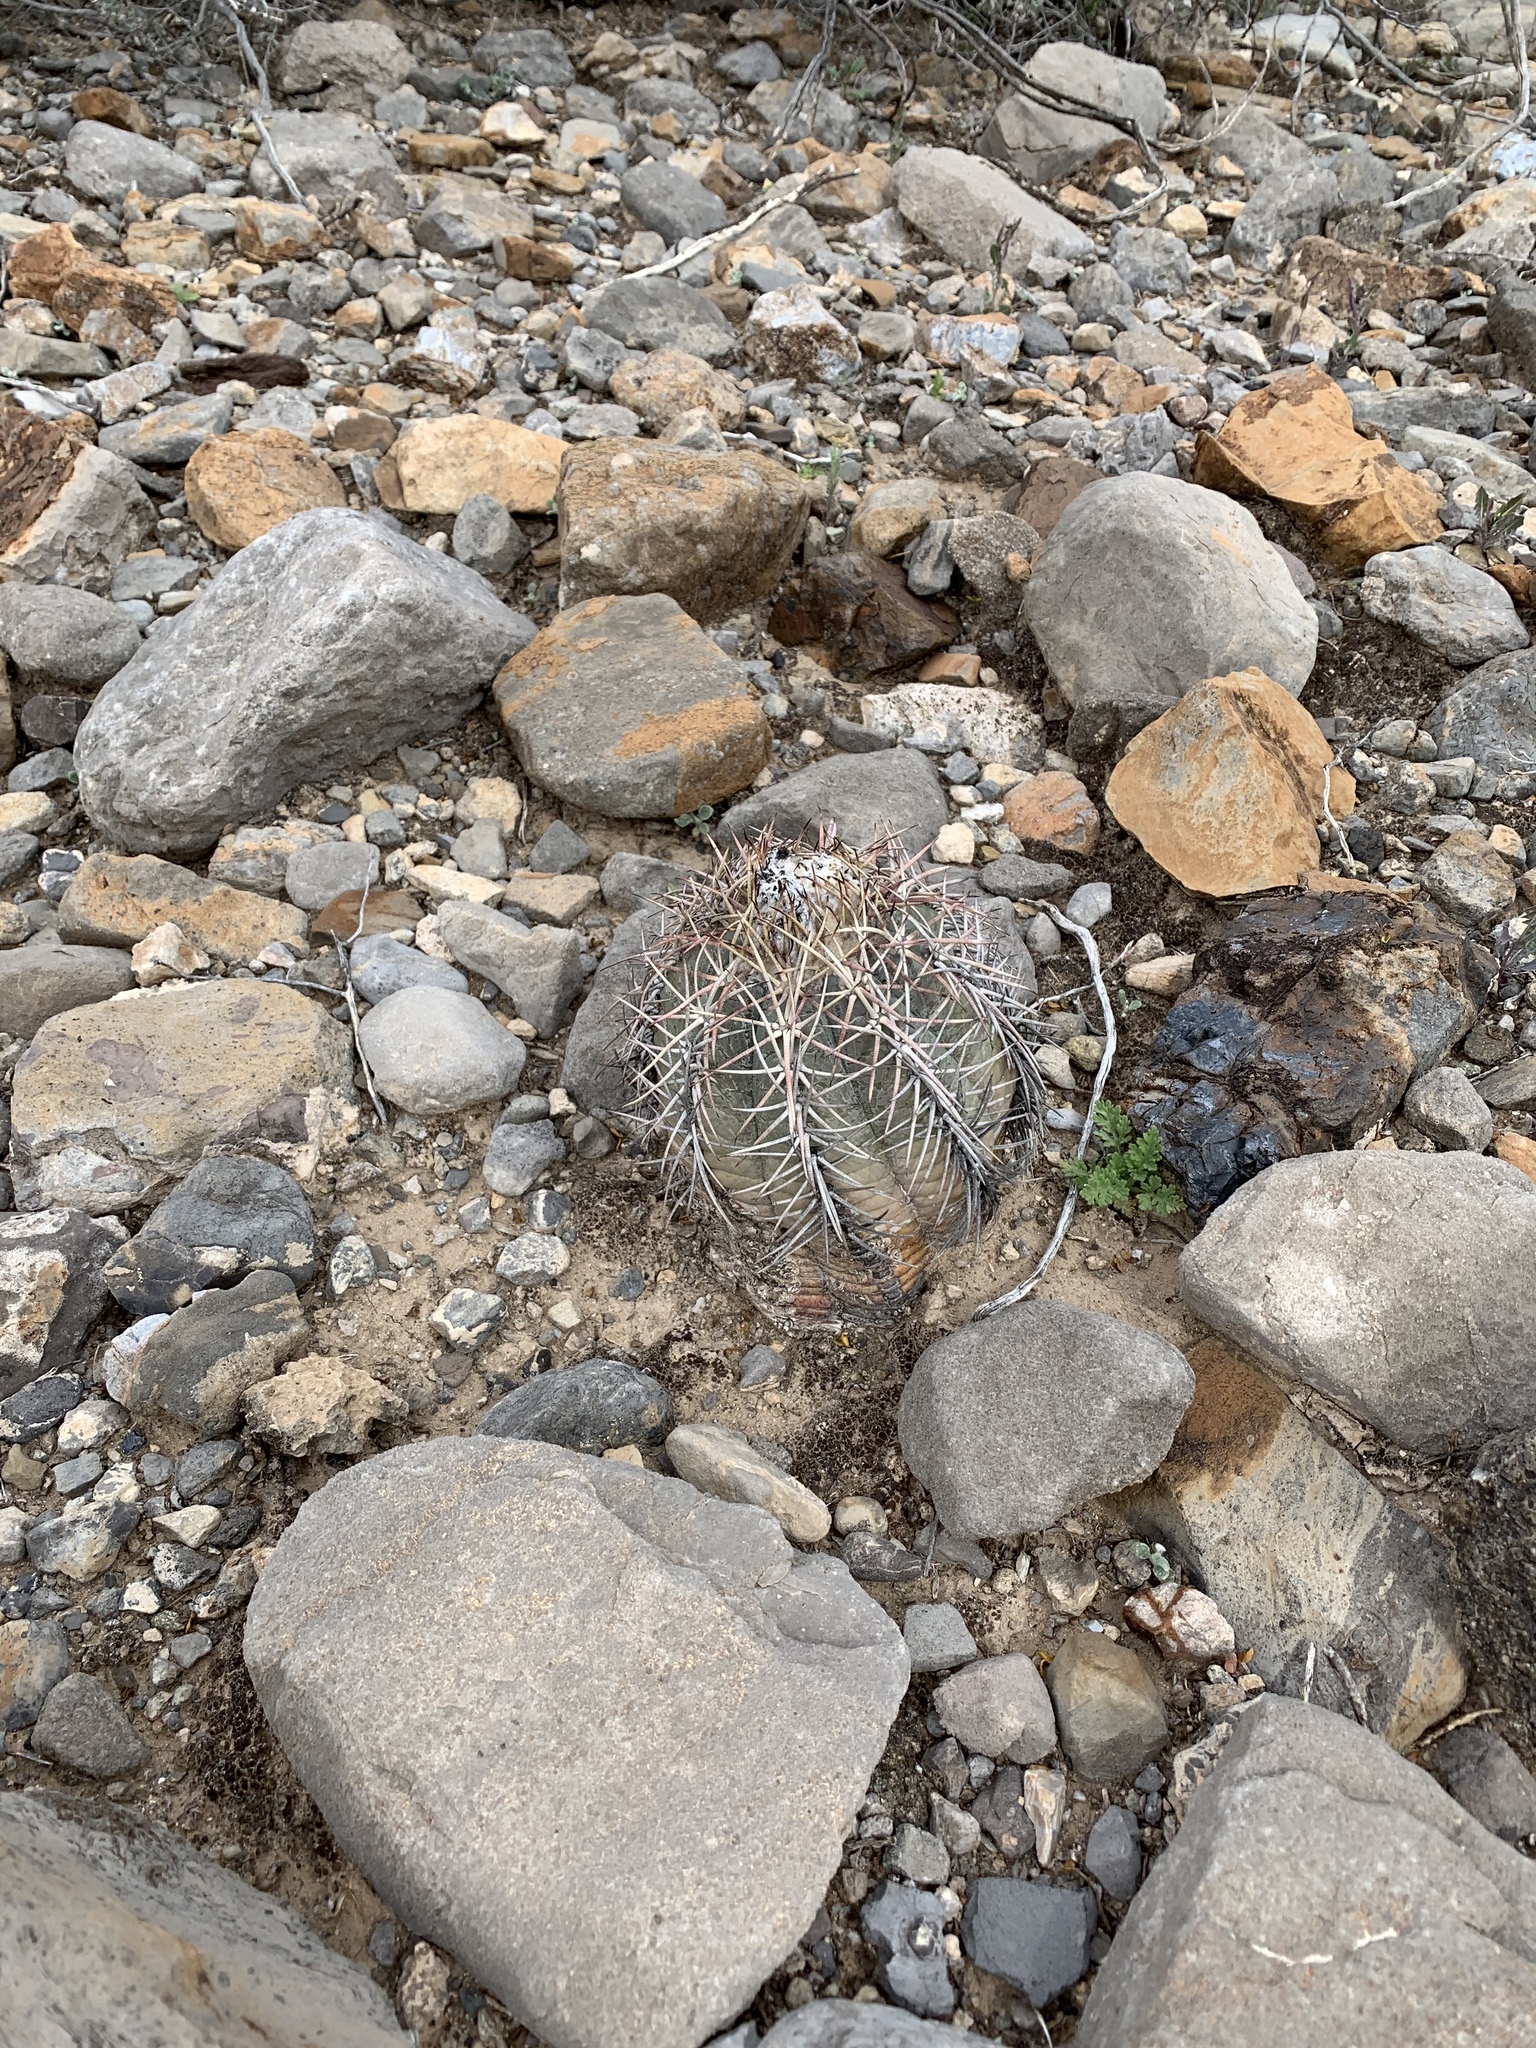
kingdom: Plantae
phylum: Tracheophyta
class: Magnoliopsida
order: Caryophyllales
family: Cactaceae
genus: Echinocactus
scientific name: Echinocactus horizonthalonius
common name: Devilshead
